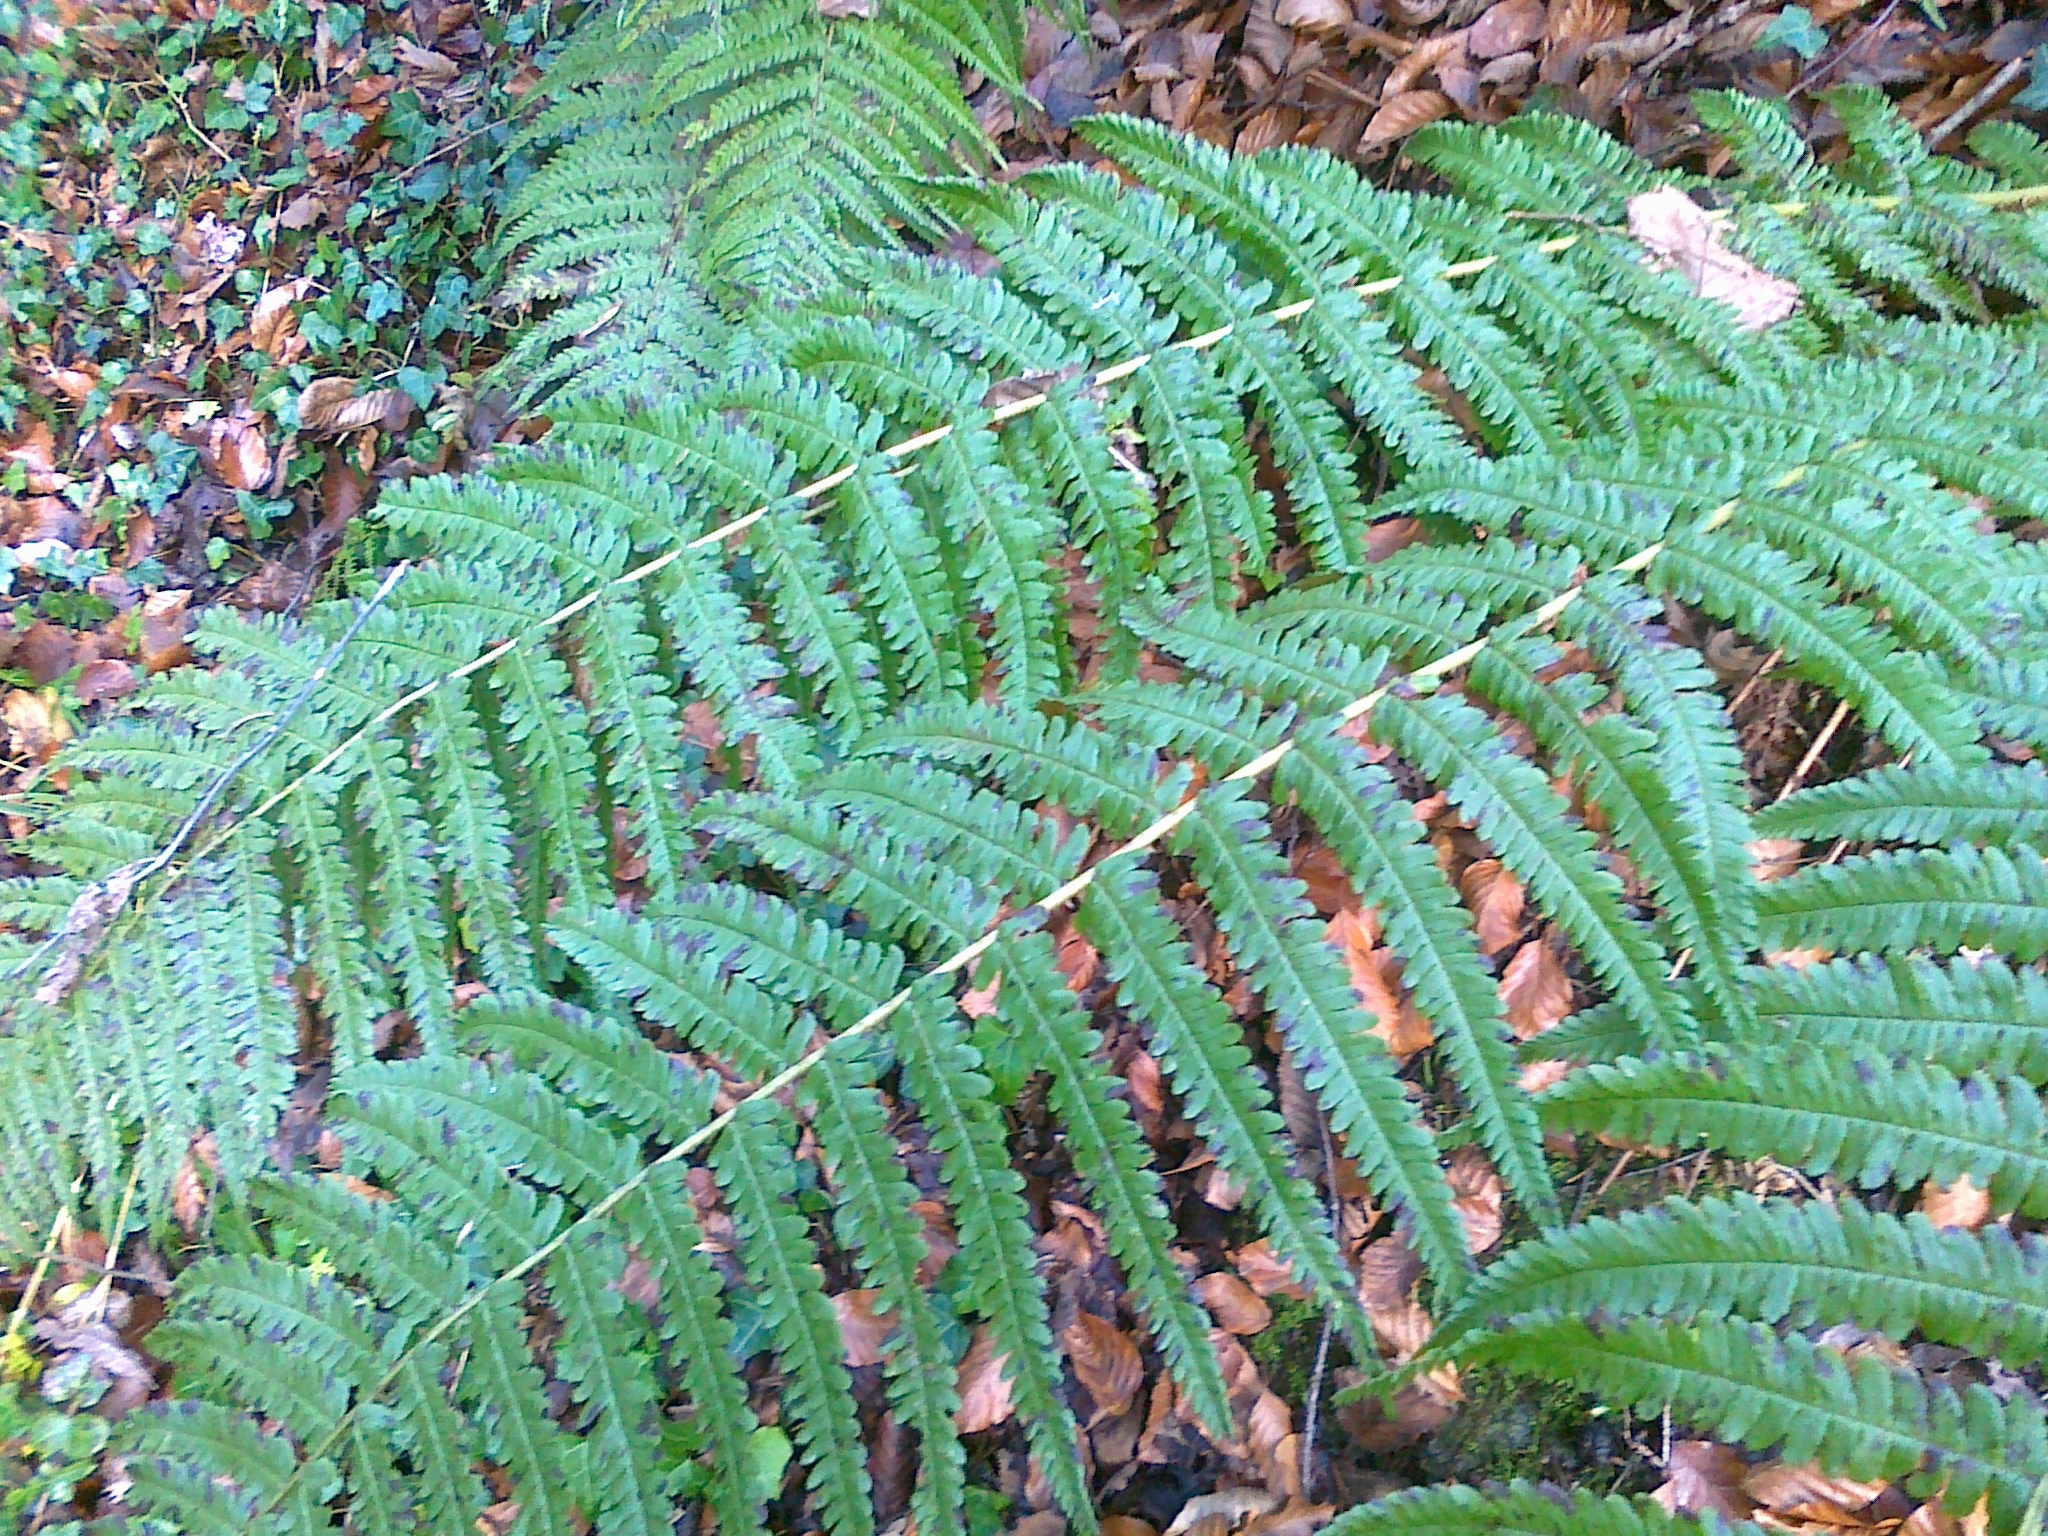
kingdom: Plantae
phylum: Tracheophyta
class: Polypodiopsida
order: Polypodiales
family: Dryopteridaceae
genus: Dryopteris
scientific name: Dryopteris borreri
